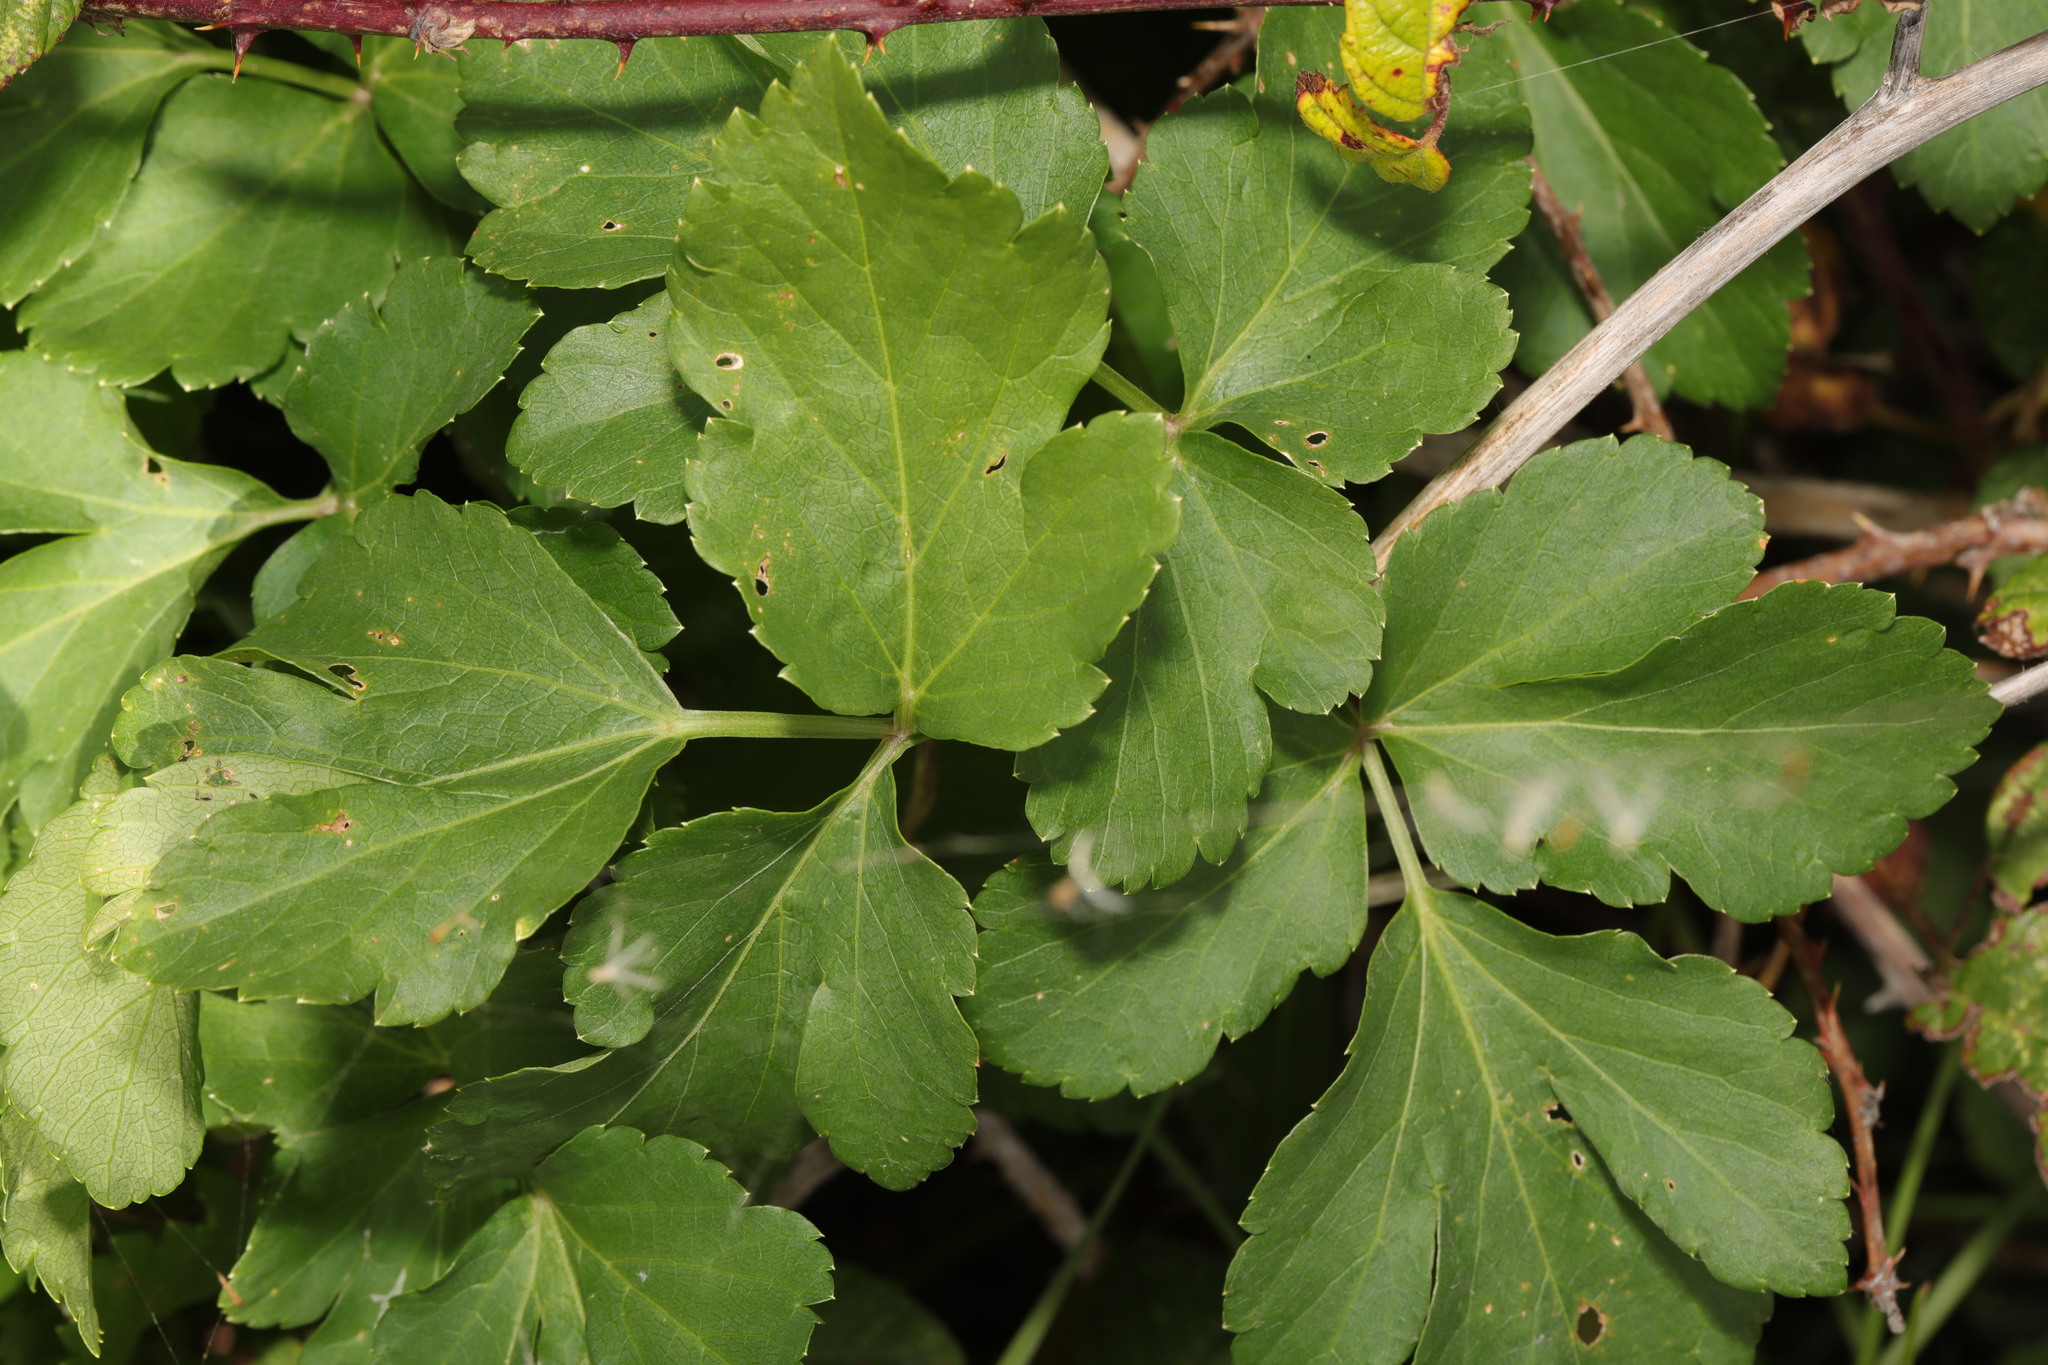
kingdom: Plantae
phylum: Tracheophyta
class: Magnoliopsida
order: Apiales
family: Apiaceae
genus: Smyrnium
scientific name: Smyrnium olusatrum
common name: Alexanders
